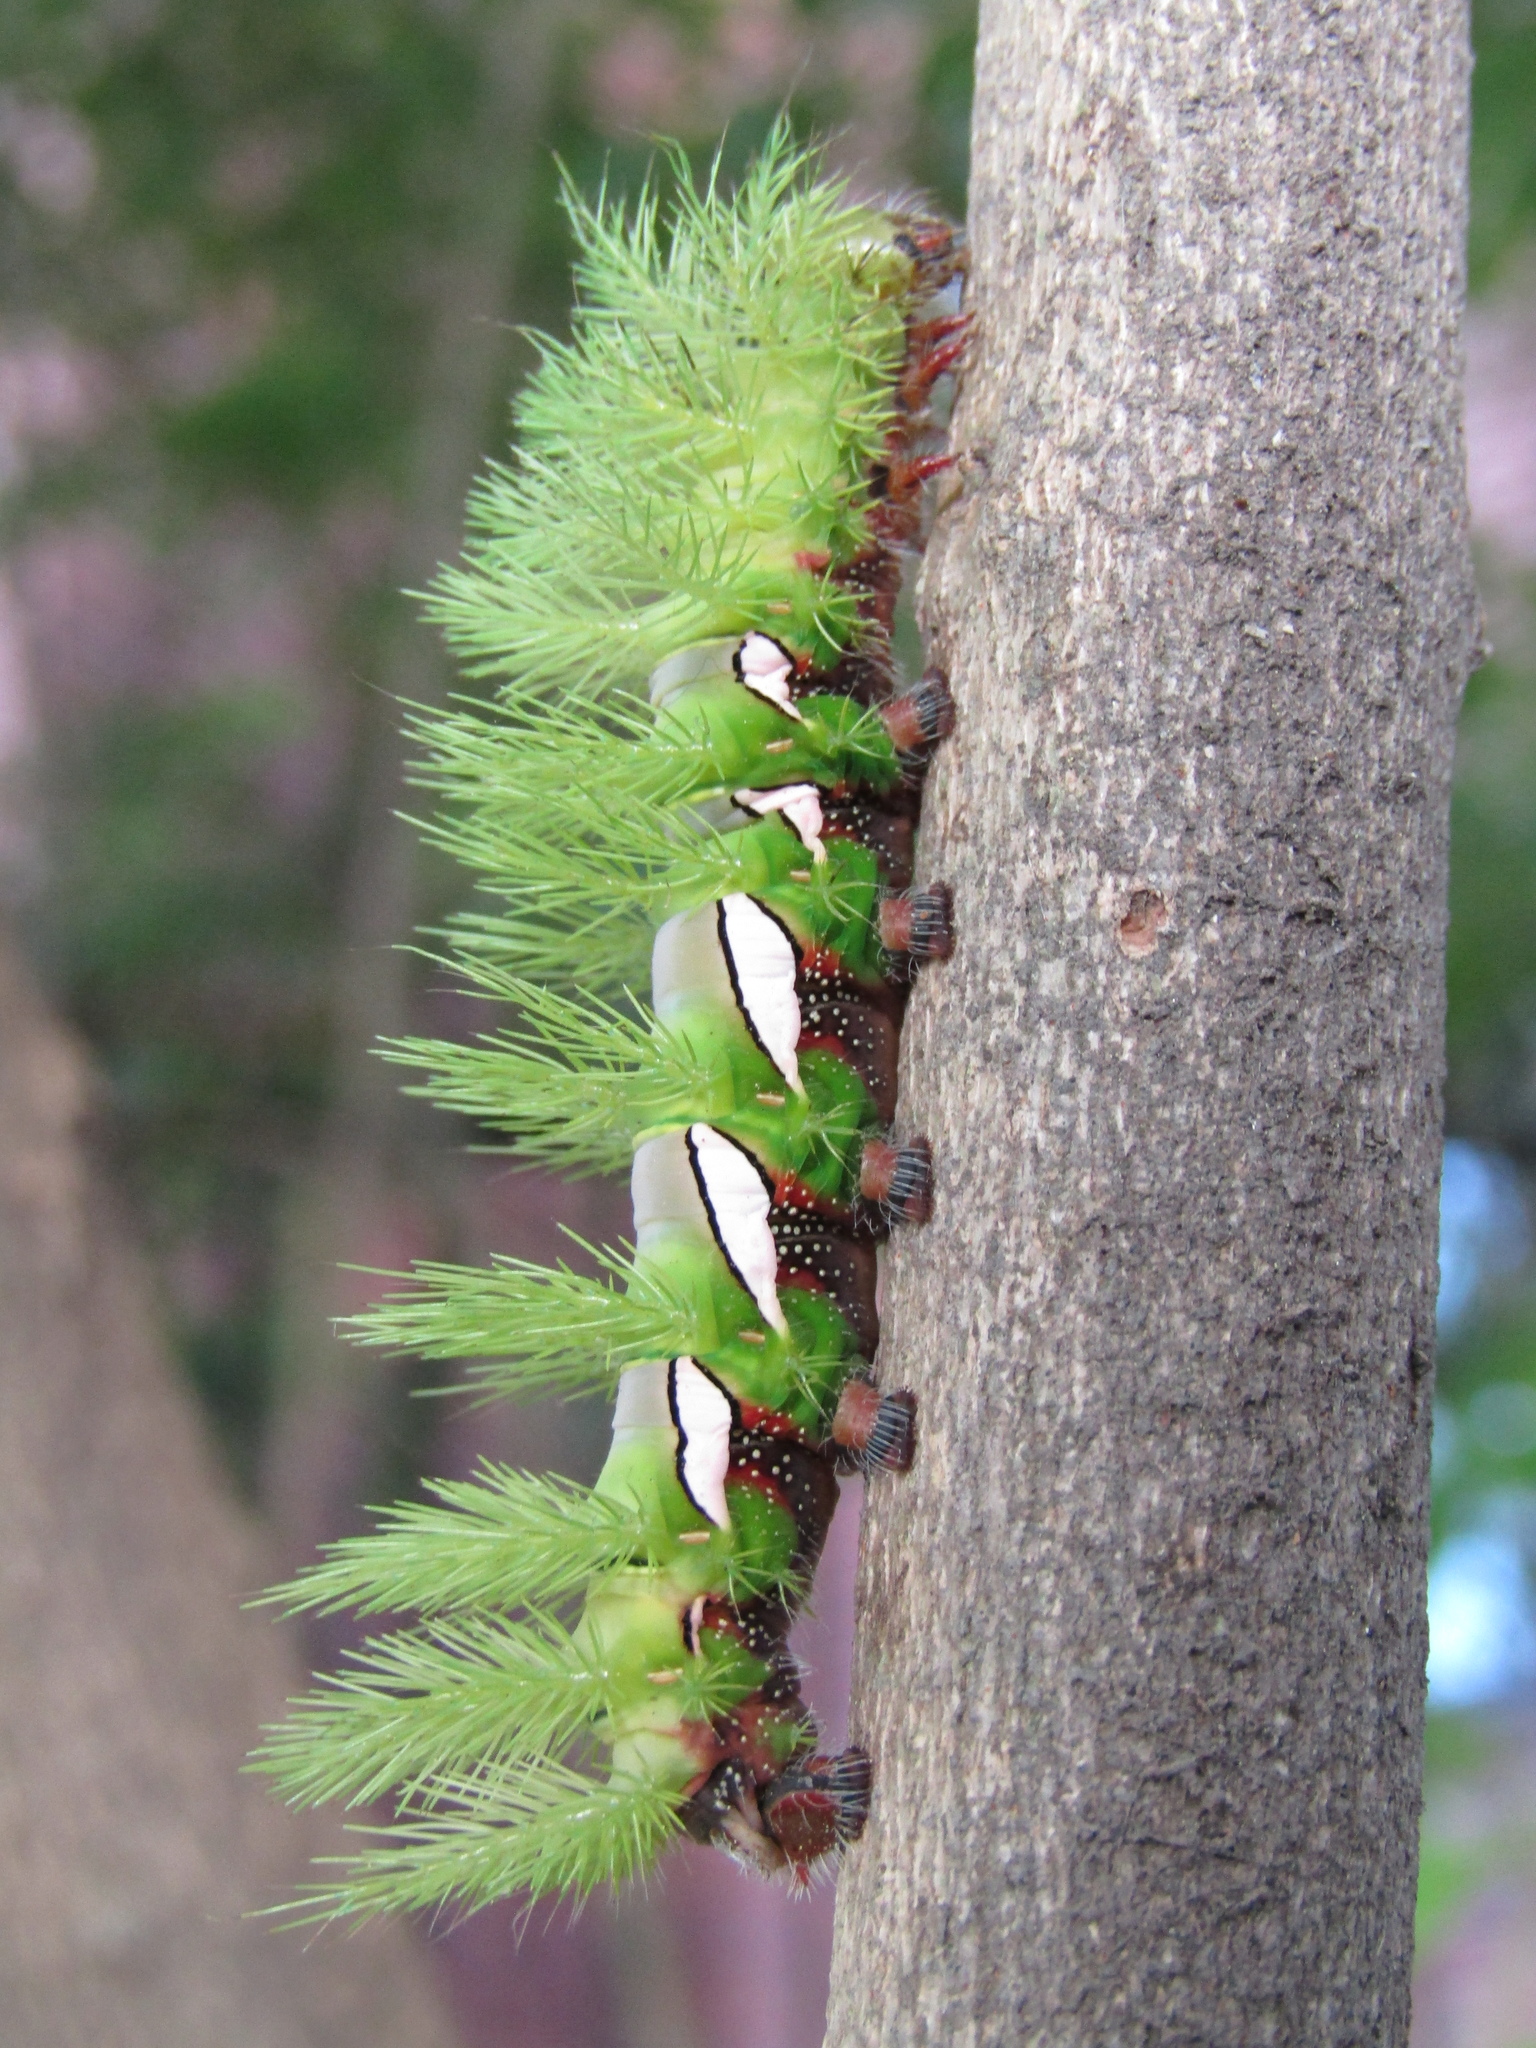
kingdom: Animalia
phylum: Arthropoda
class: Insecta
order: Lepidoptera
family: Saturniidae
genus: Automeris
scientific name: Automeris naranja
